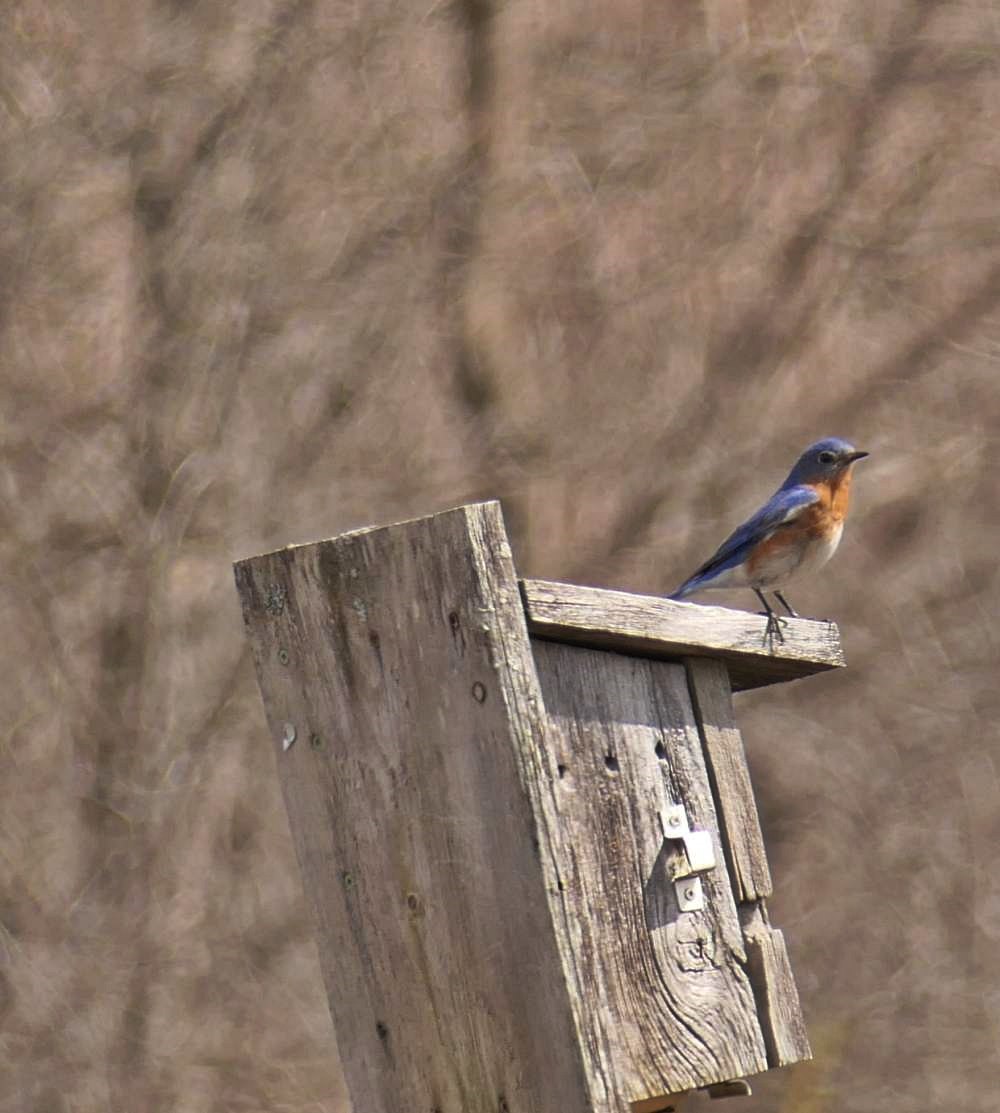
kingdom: Animalia
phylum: Chordata
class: Aves
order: Passeriformes
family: Turdidae
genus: Sialia
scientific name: Sialia sialis
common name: Eastern bluebird
